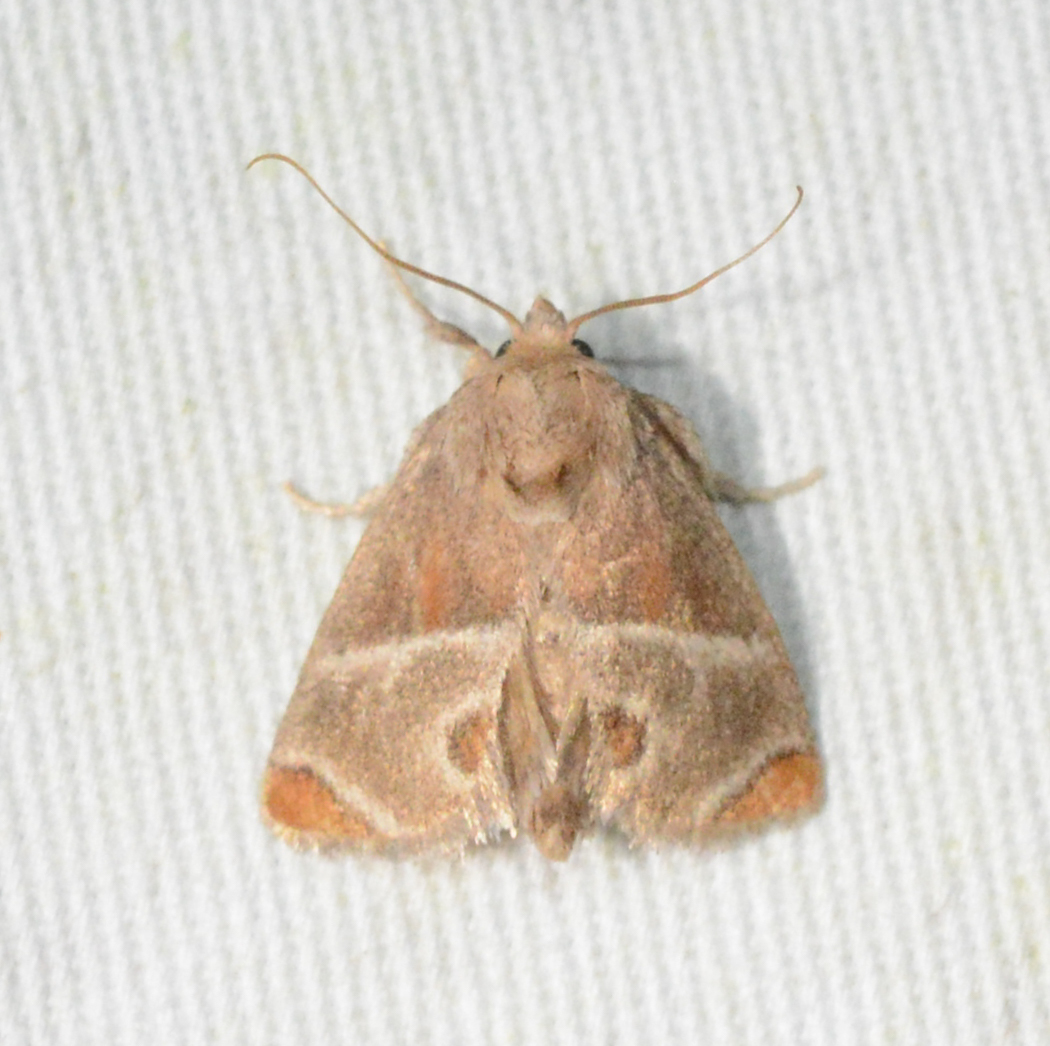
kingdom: Animalia
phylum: Arthropoda
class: Insecta
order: Lepidoptera
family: Limacodidae
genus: Apoda
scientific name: Apoda biguttata
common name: Shagreened slug moth
